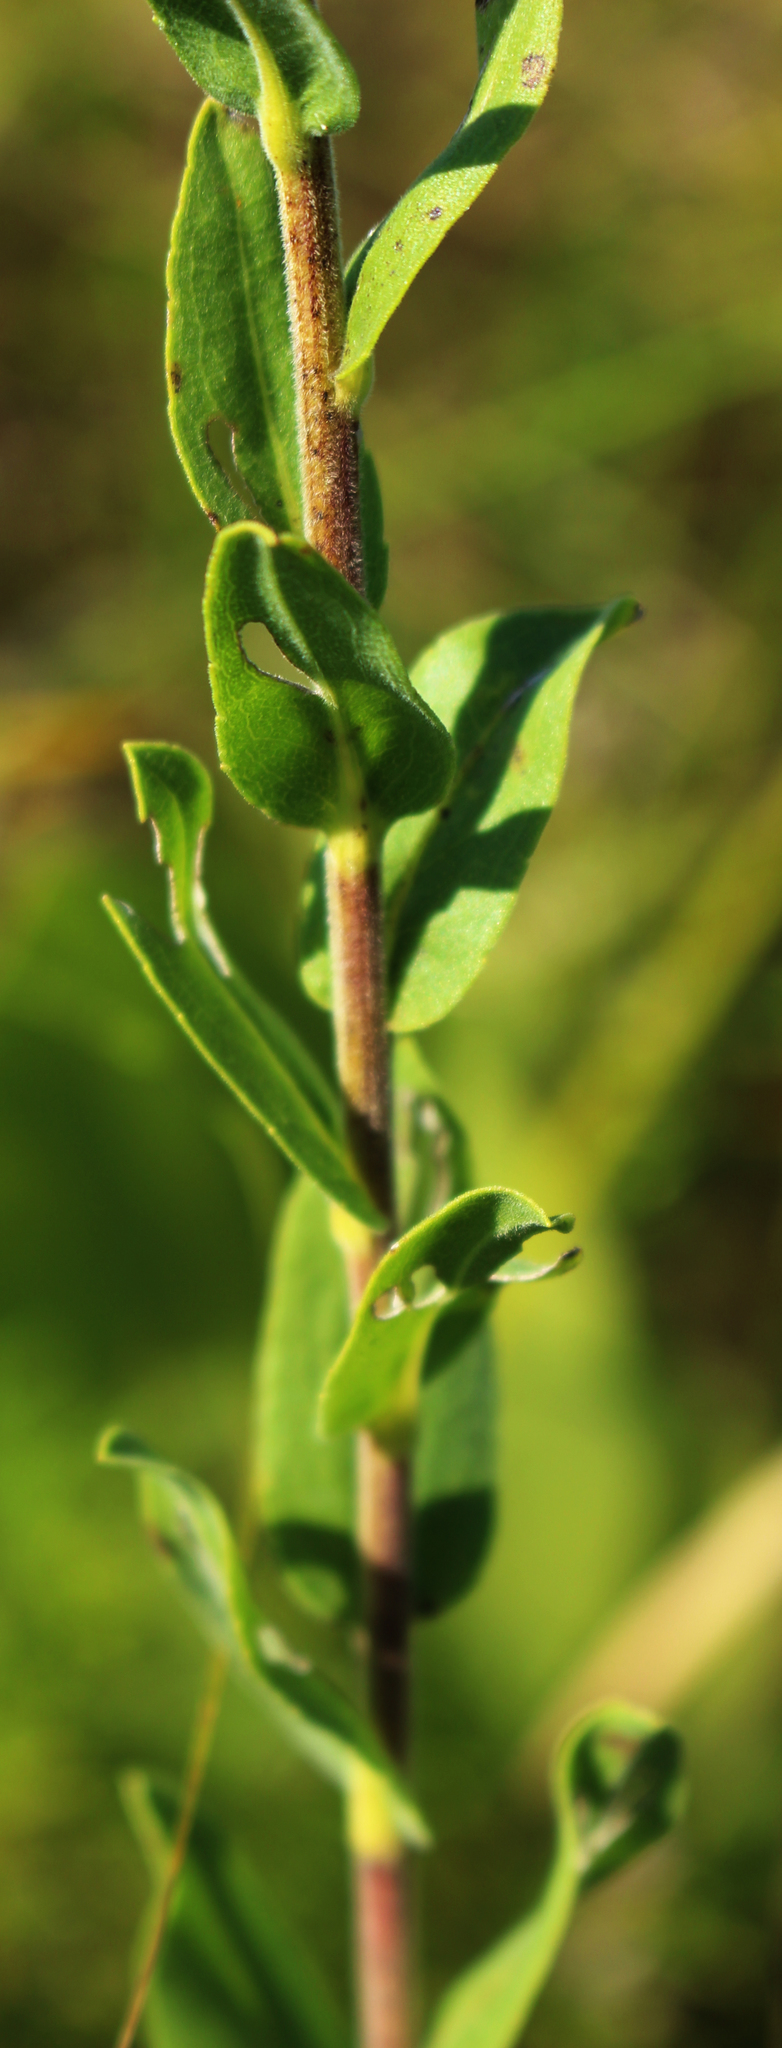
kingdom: Plantae
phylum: Tracheophyta
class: Magnoliopsida
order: Asterales
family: Asteraceae
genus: Solidago
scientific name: Solidago rigida
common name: Rigid goldenrod
